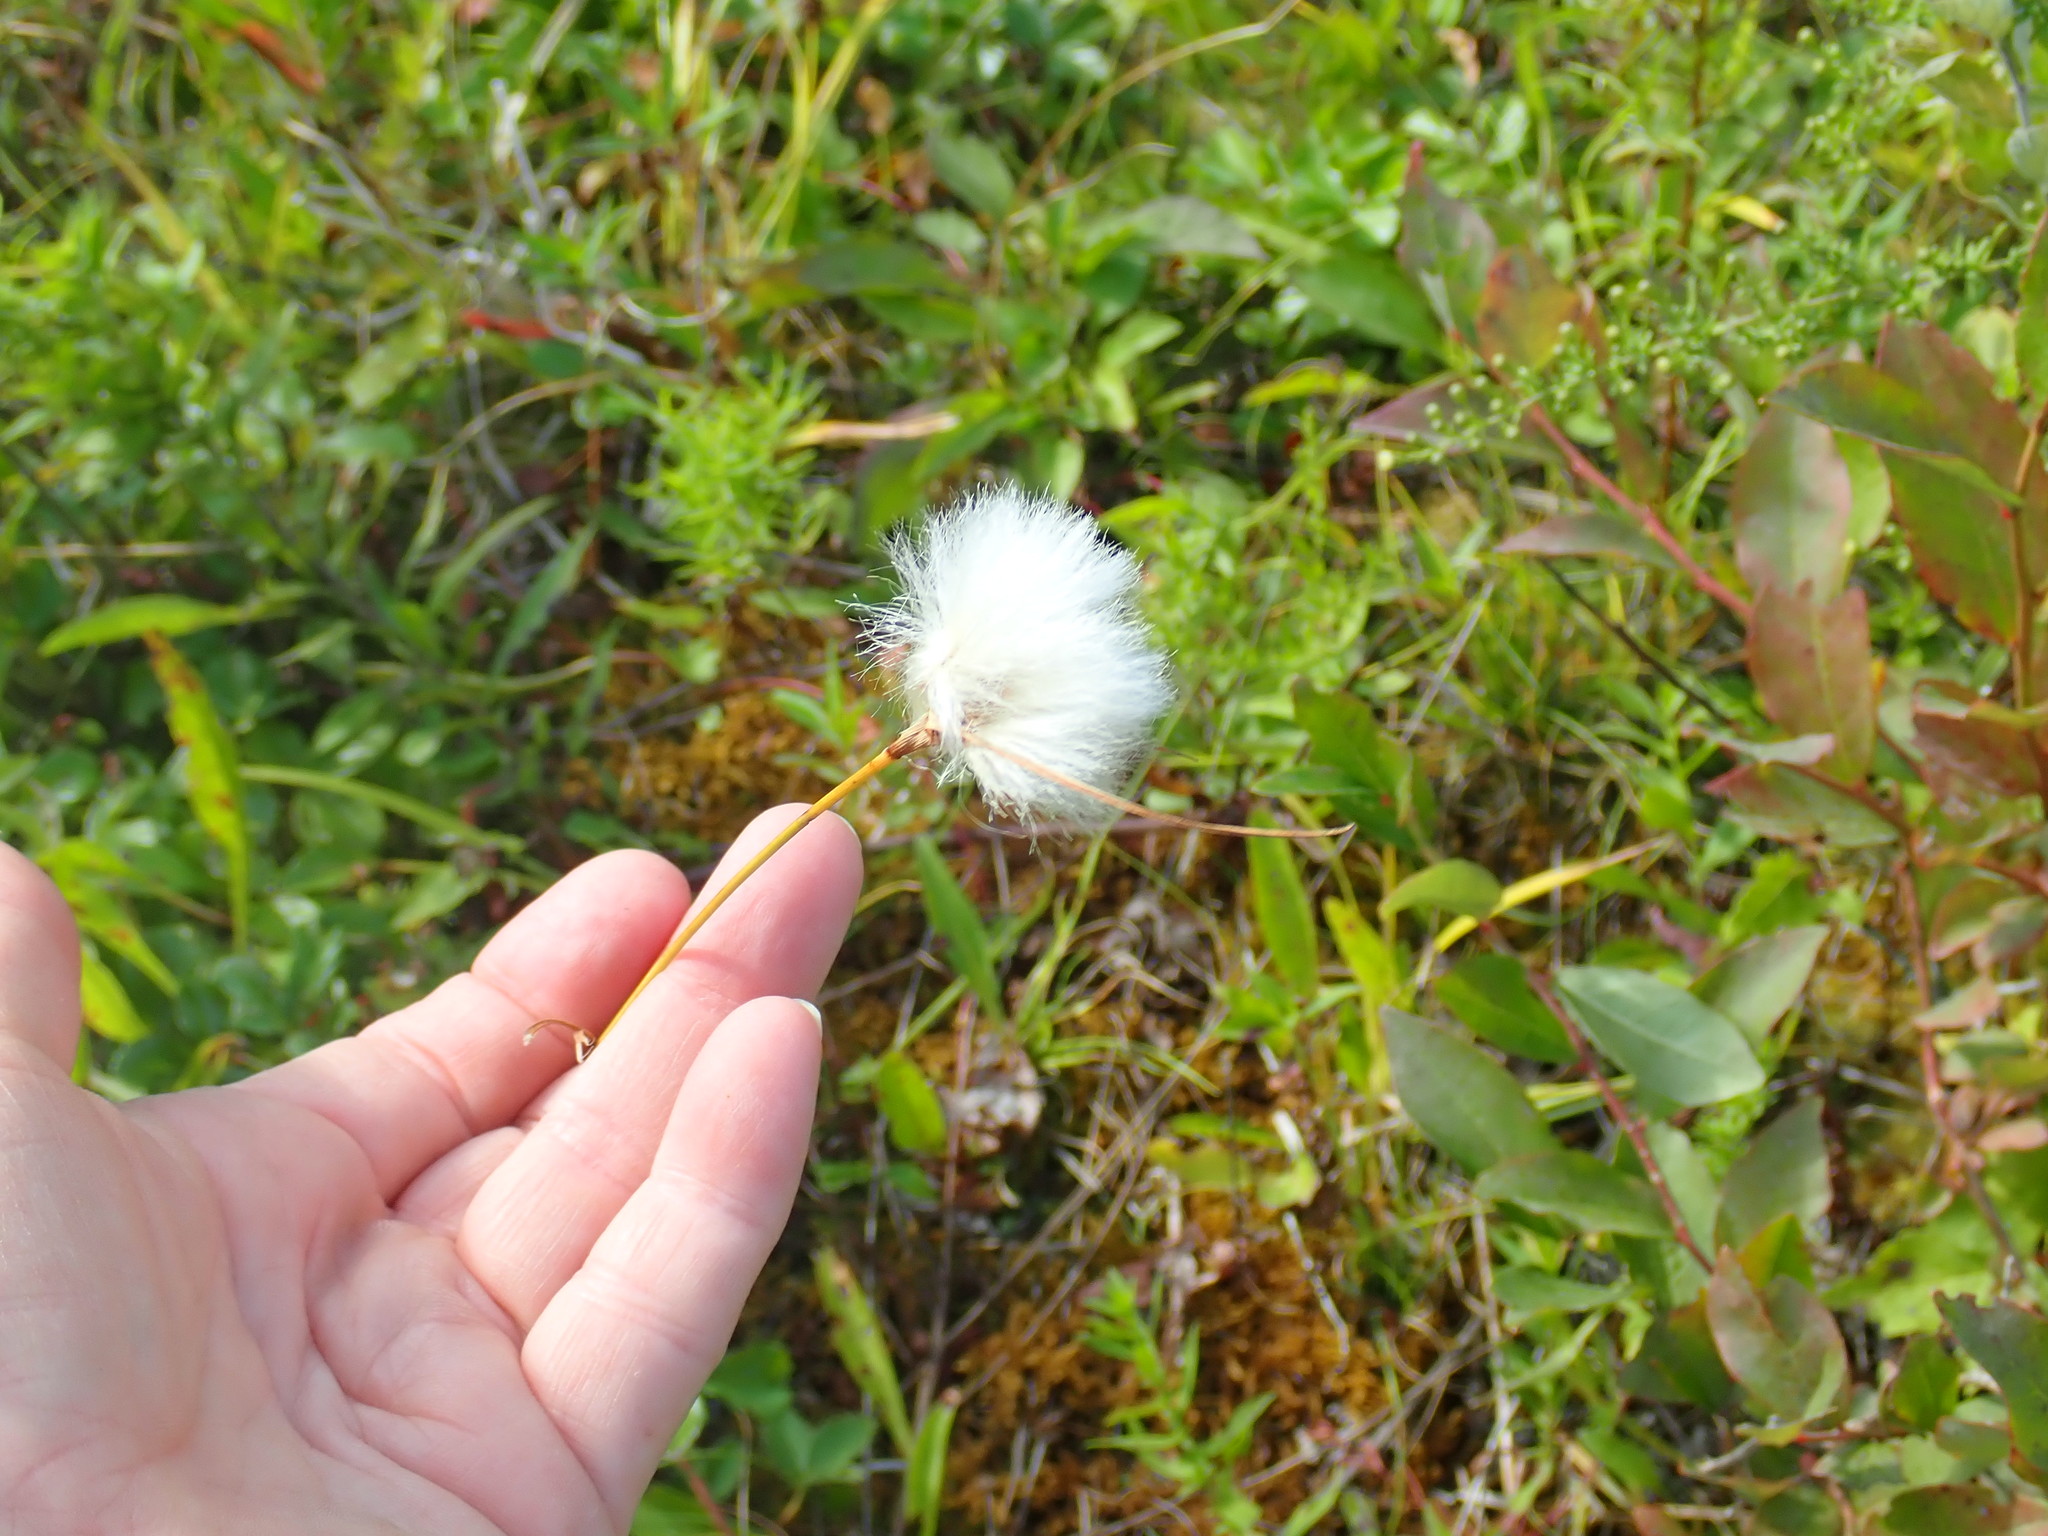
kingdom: Plantae
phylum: Tracheophyta
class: Liliopsida
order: Poales
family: Cyperaceae
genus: Eriophorum
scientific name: Eriophorum
